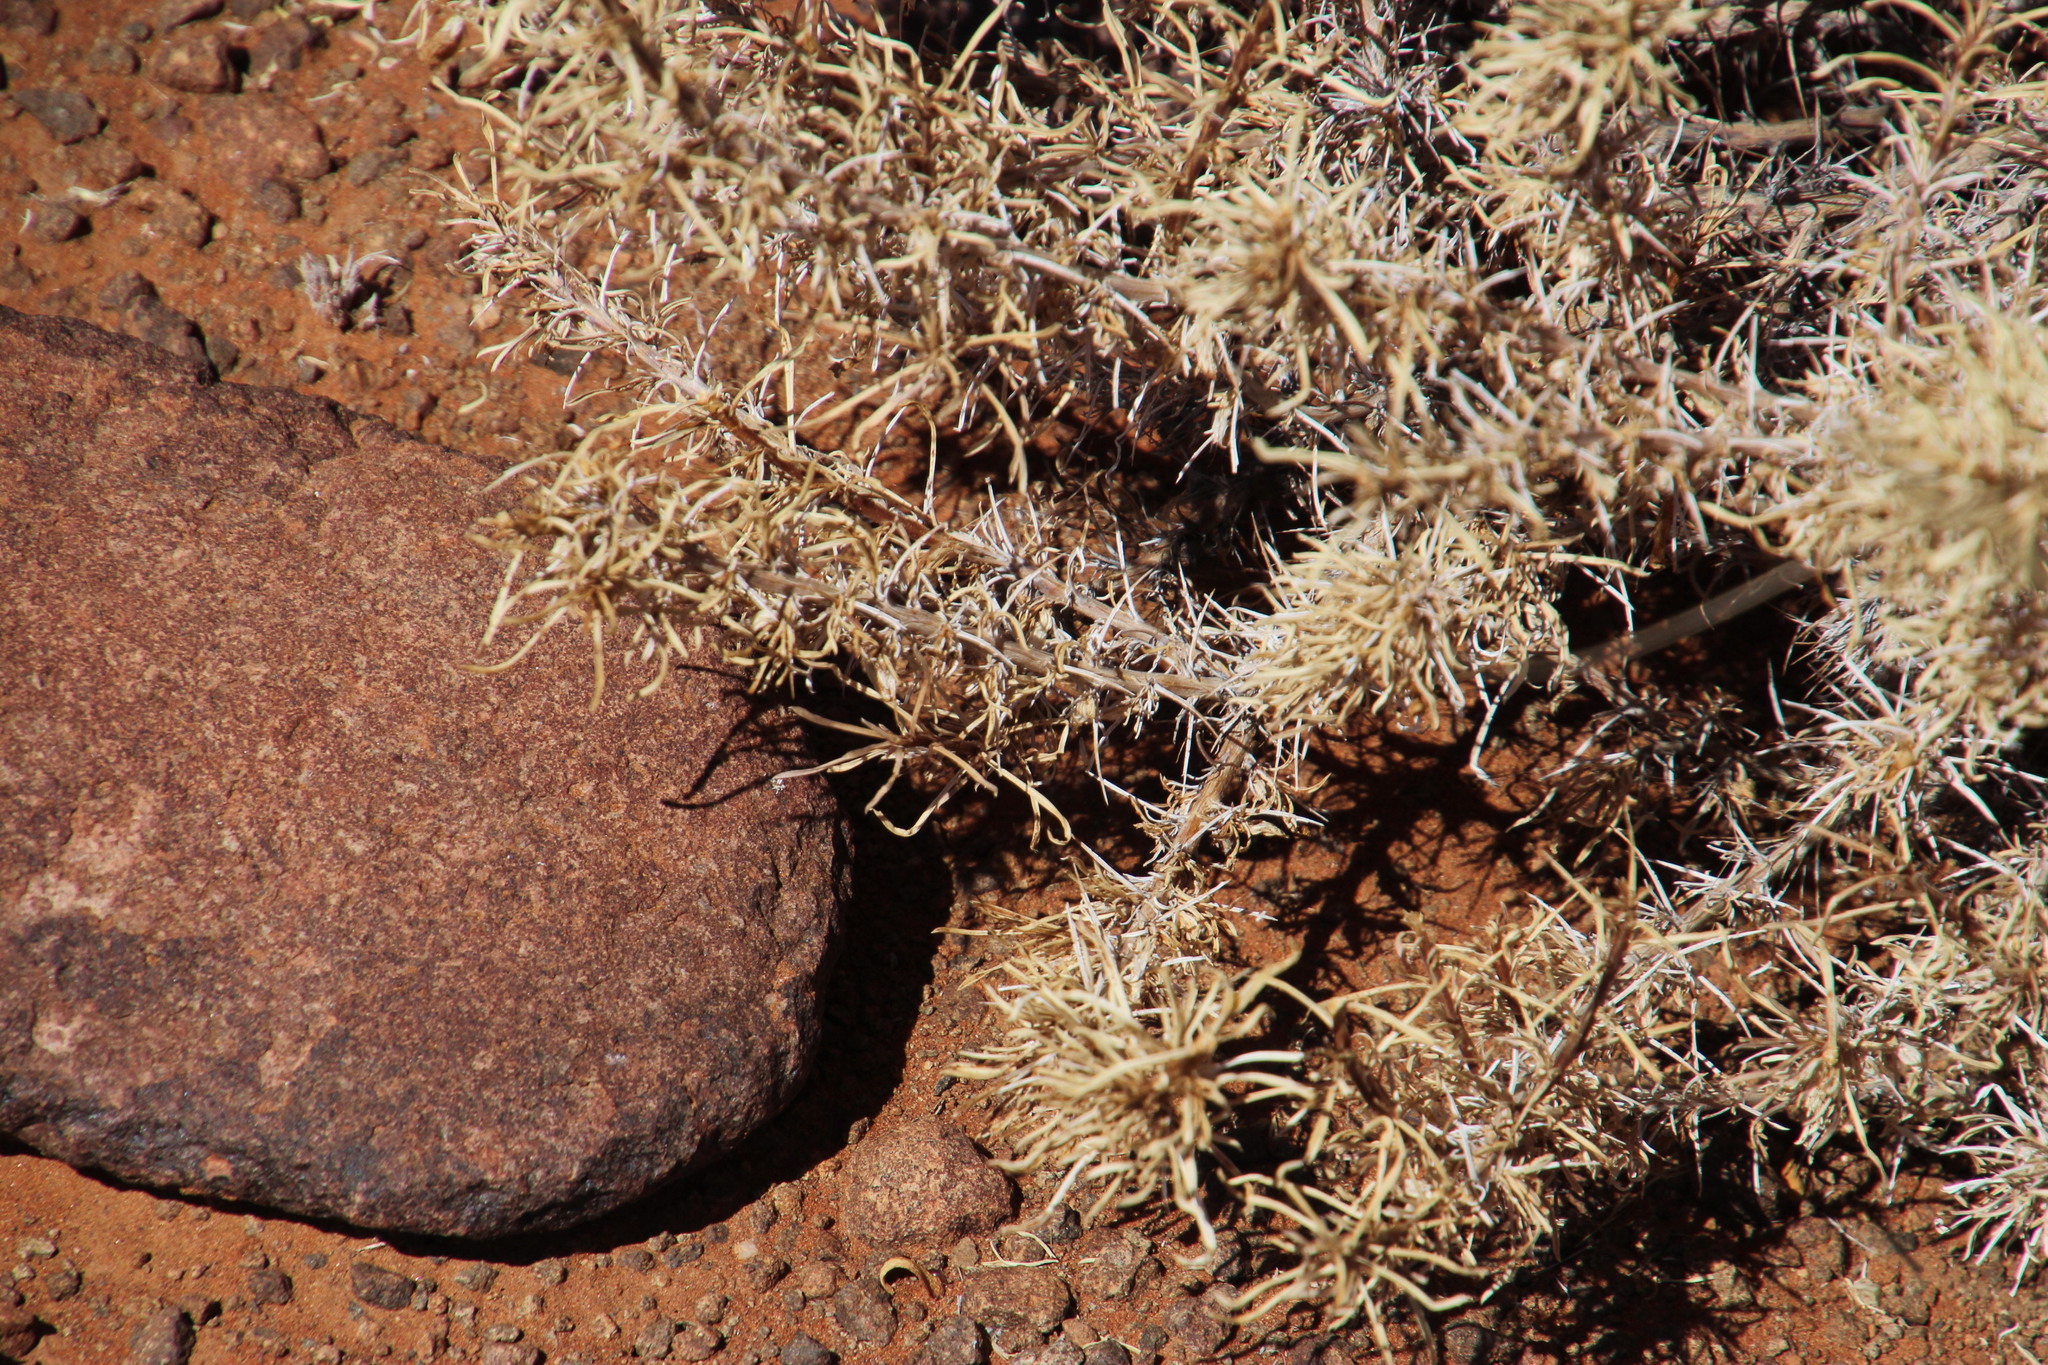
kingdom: Plantae
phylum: Tracheophyta
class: Magnoliopsida
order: Lamiales
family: Scrophulariaceae
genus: Aptosimum
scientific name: Aptosimum spinescens
